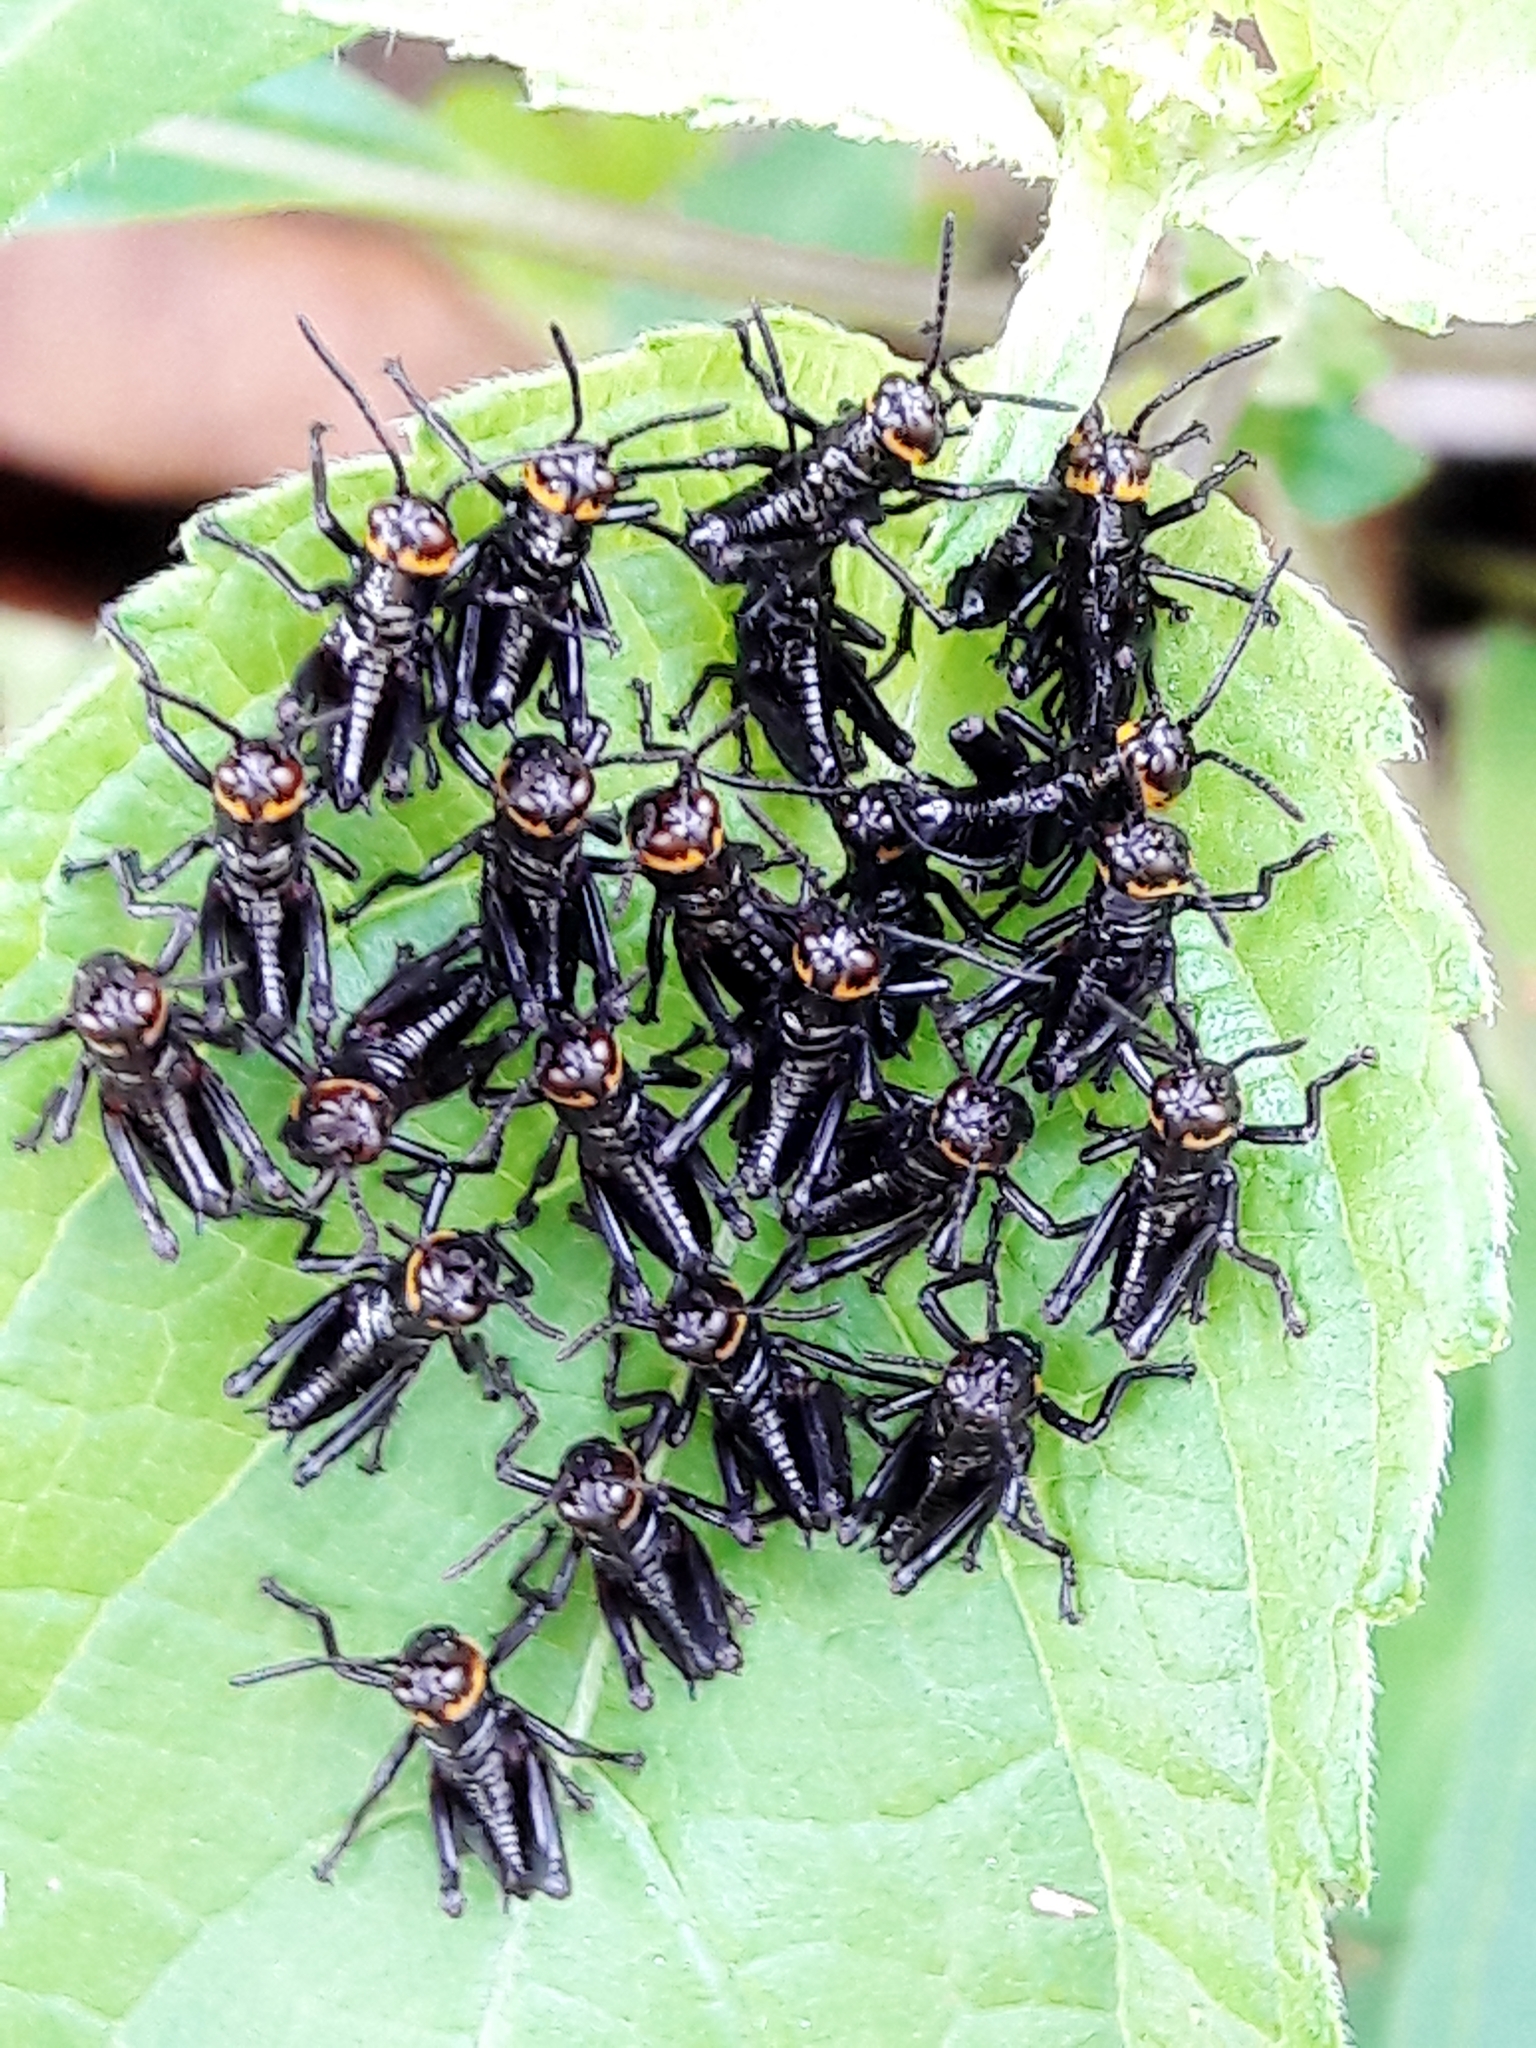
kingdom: Animalia
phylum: Arthropoda
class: Insecta
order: Orthoptera
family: Romaleidae
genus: Chromacris
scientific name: Chromacris speciosa
